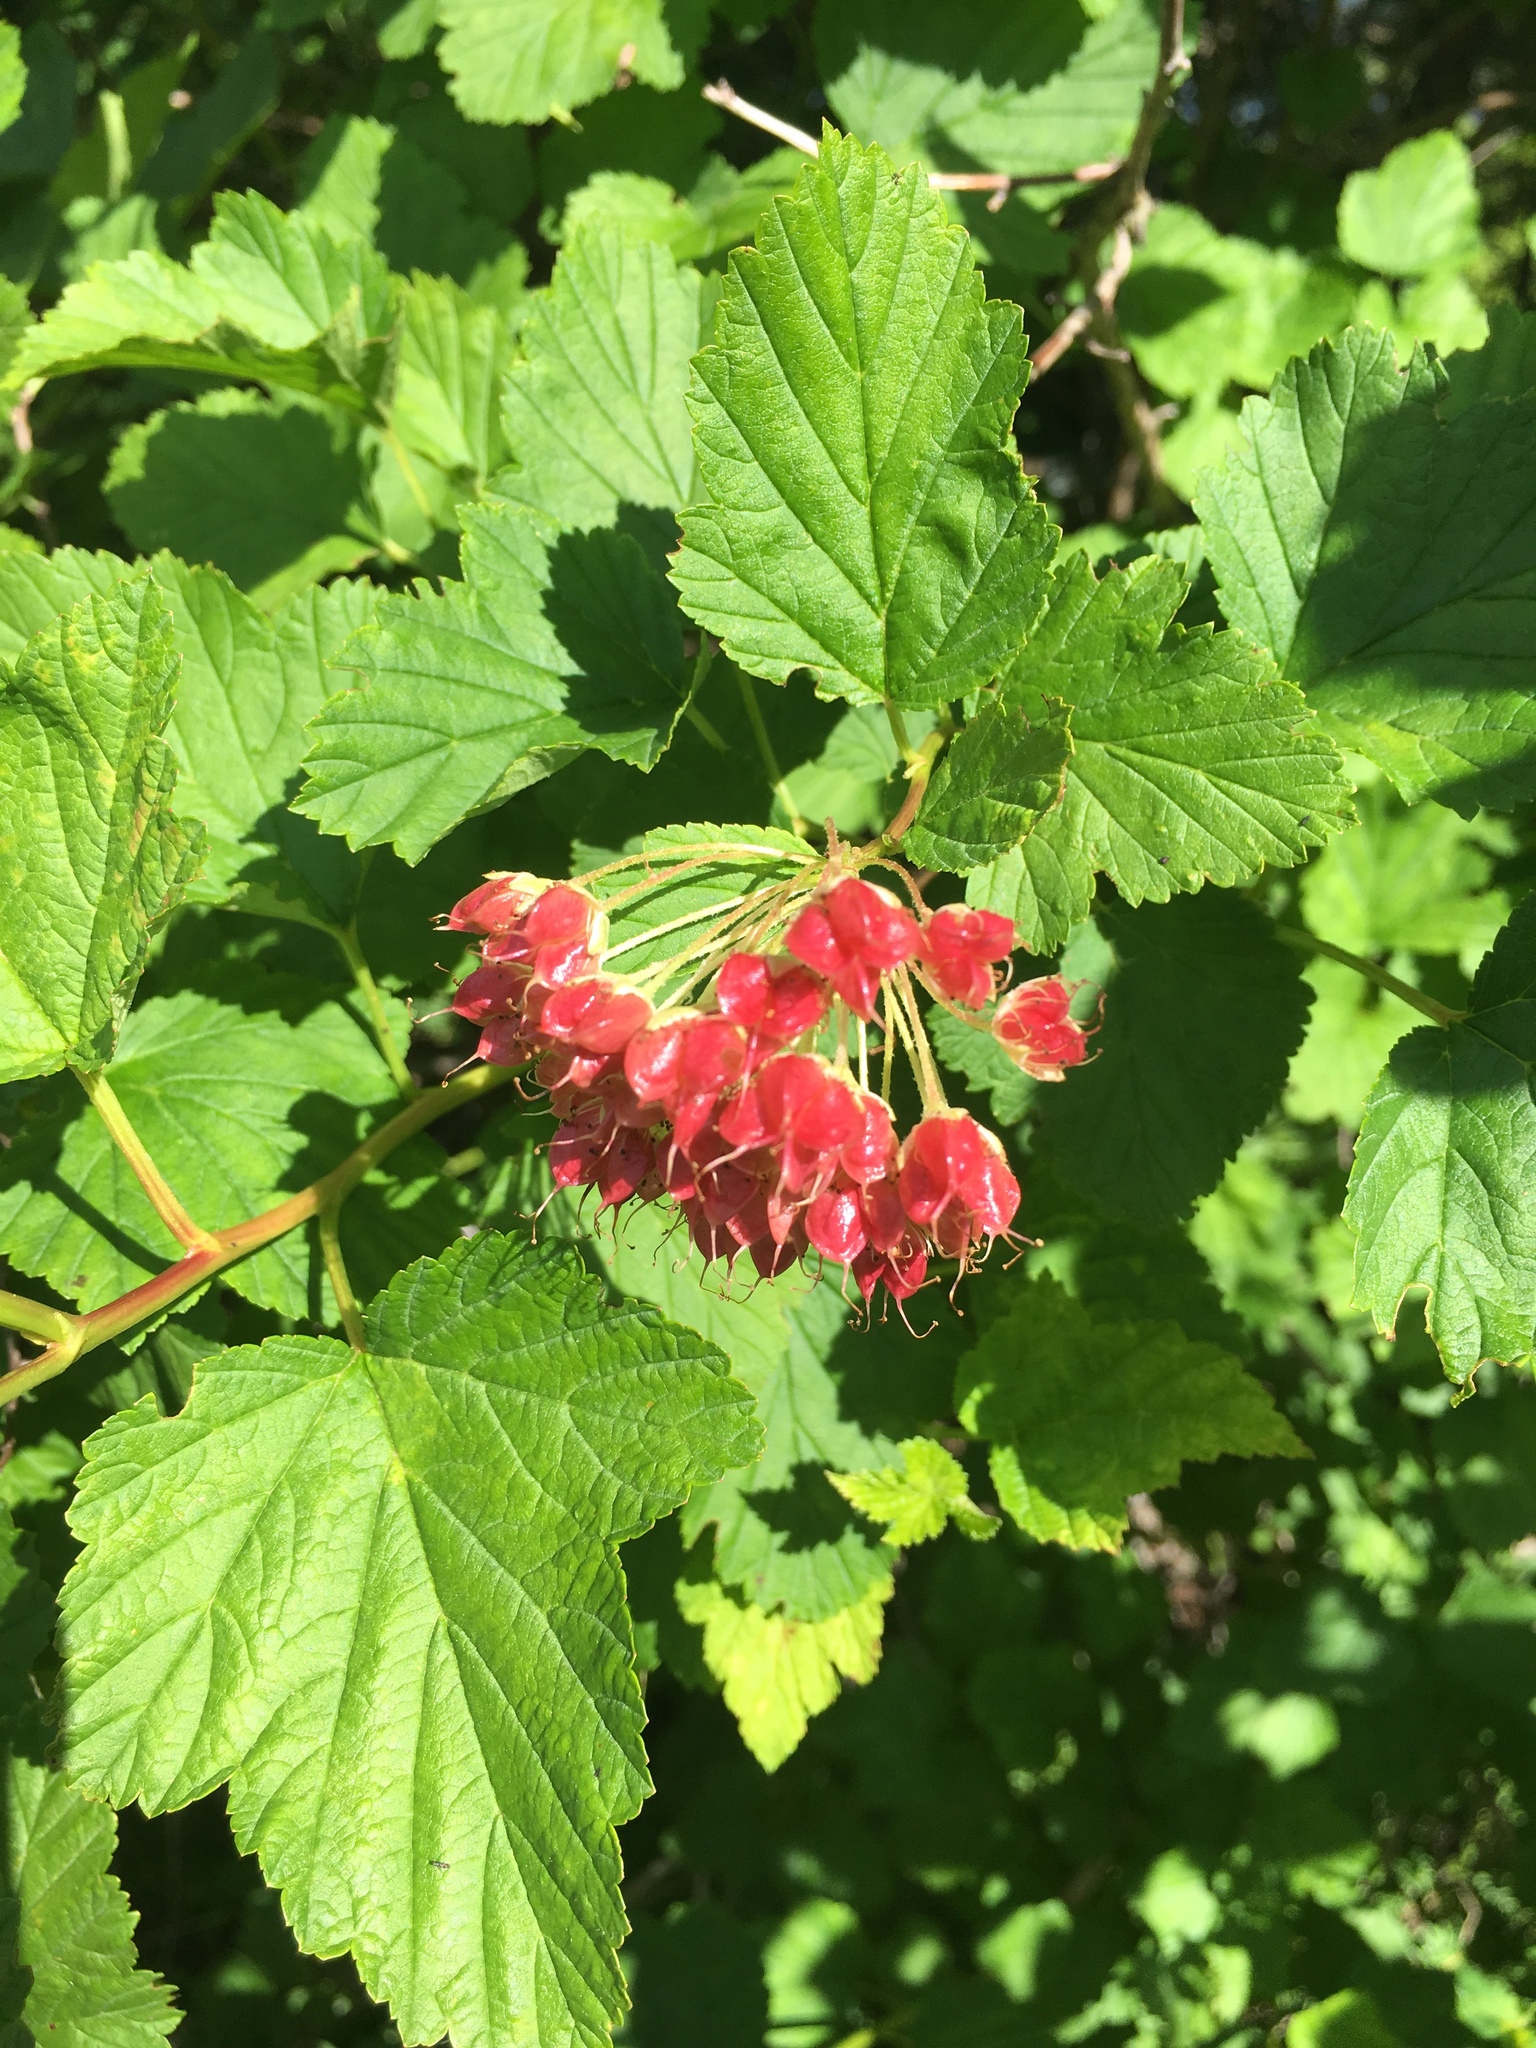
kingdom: Plantae
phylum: Tracheophyta
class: Magnoliopsida
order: Rosales
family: Rosaceae
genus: Physocarpus
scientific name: Physocarpus opulifolius
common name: Ninebark
